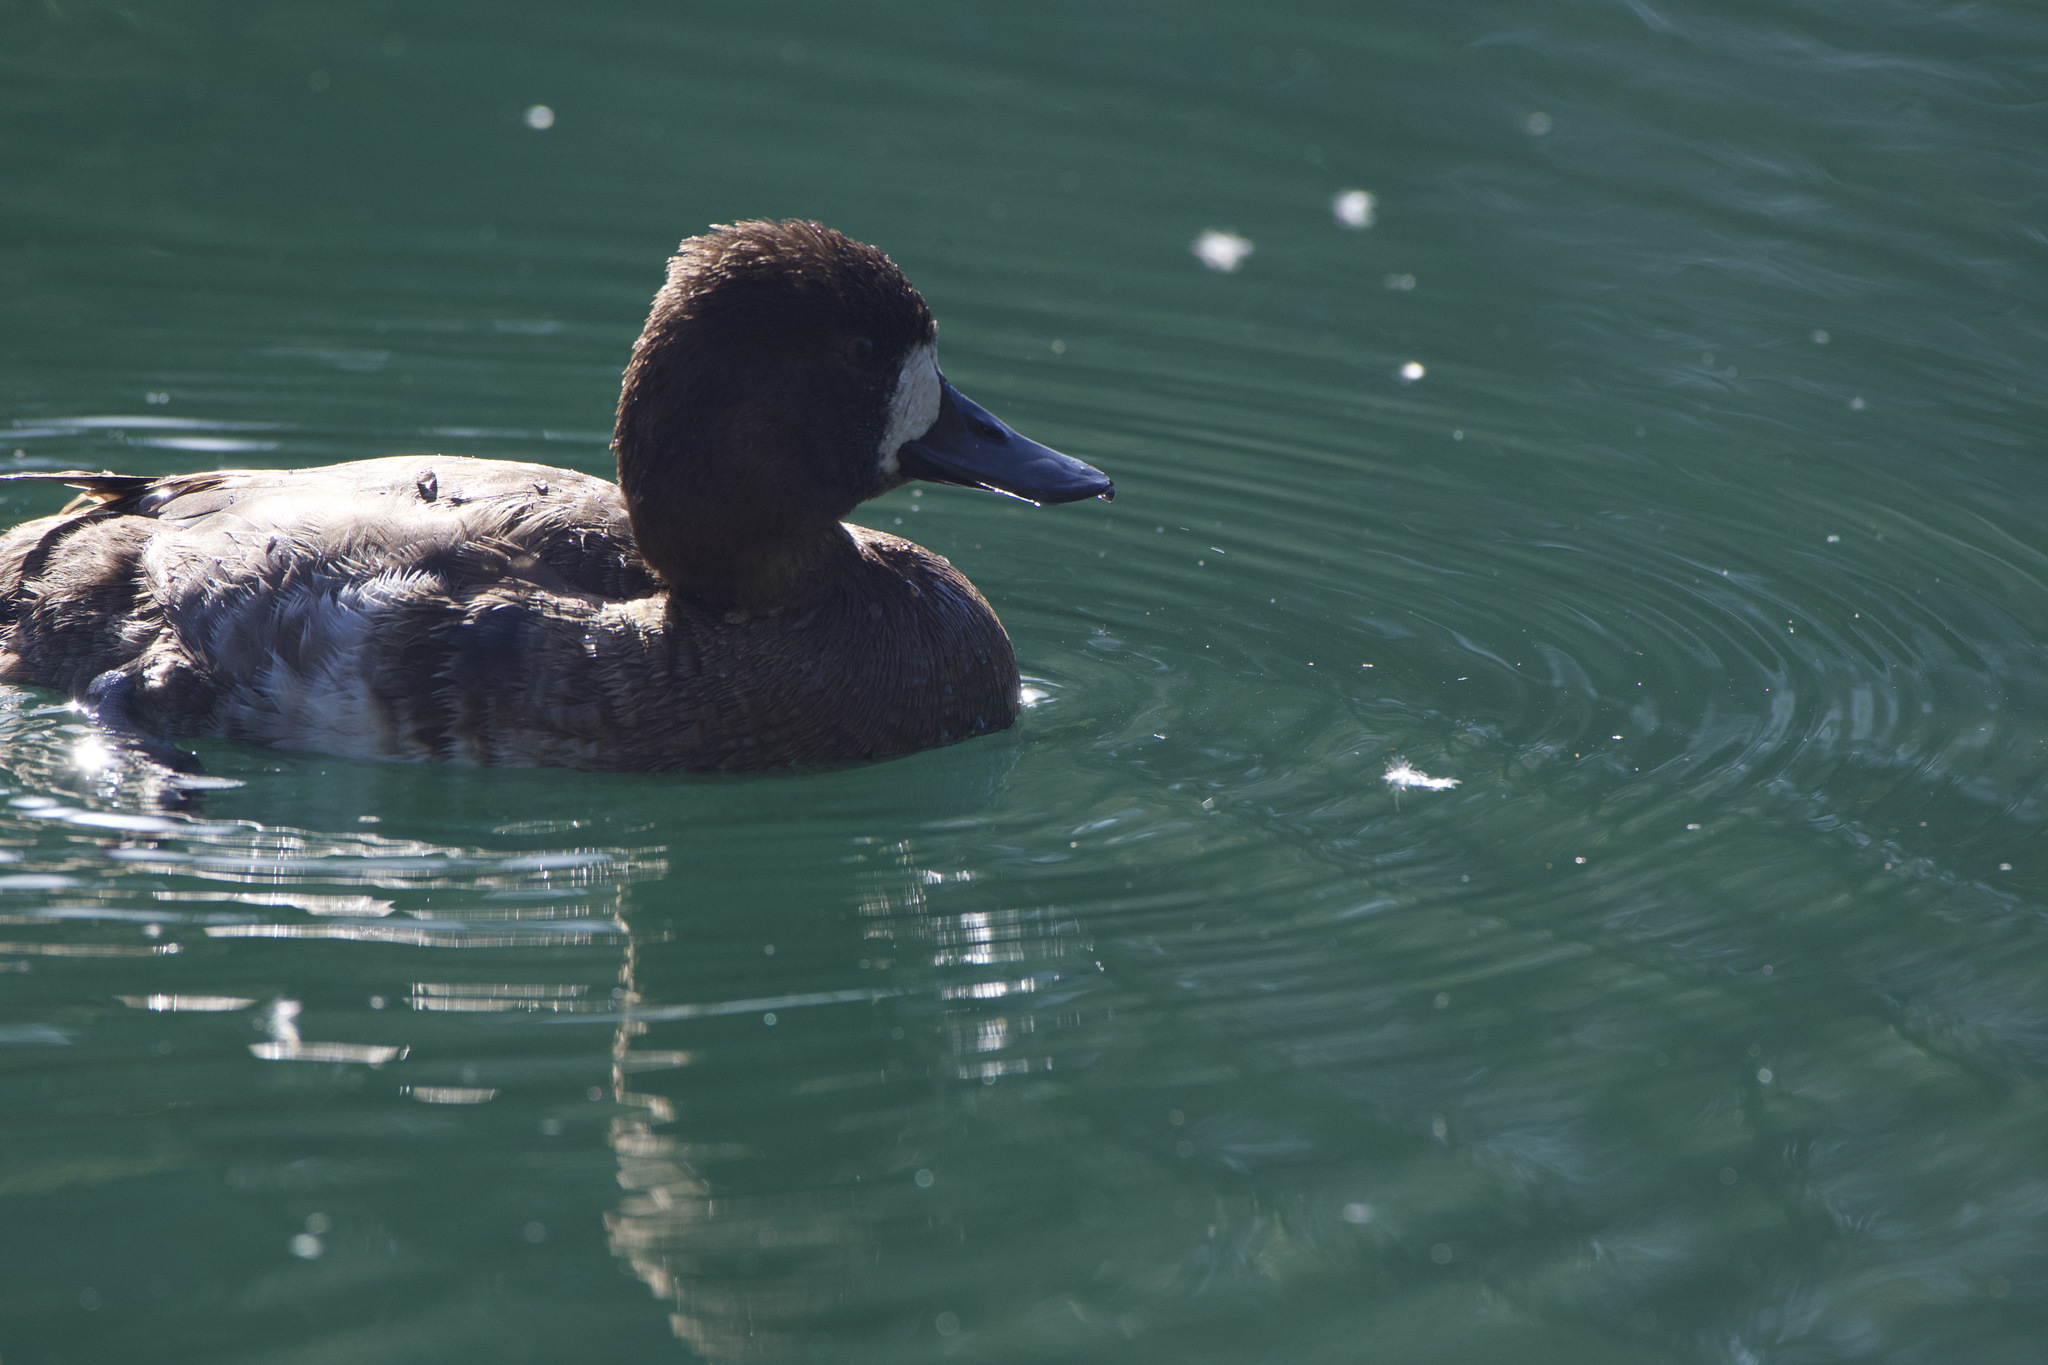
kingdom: Animalia
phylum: Chordata
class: Aves
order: Anseriformes
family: Anatidae
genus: Aythya
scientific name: Aythya affinis
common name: Lesser scaup
